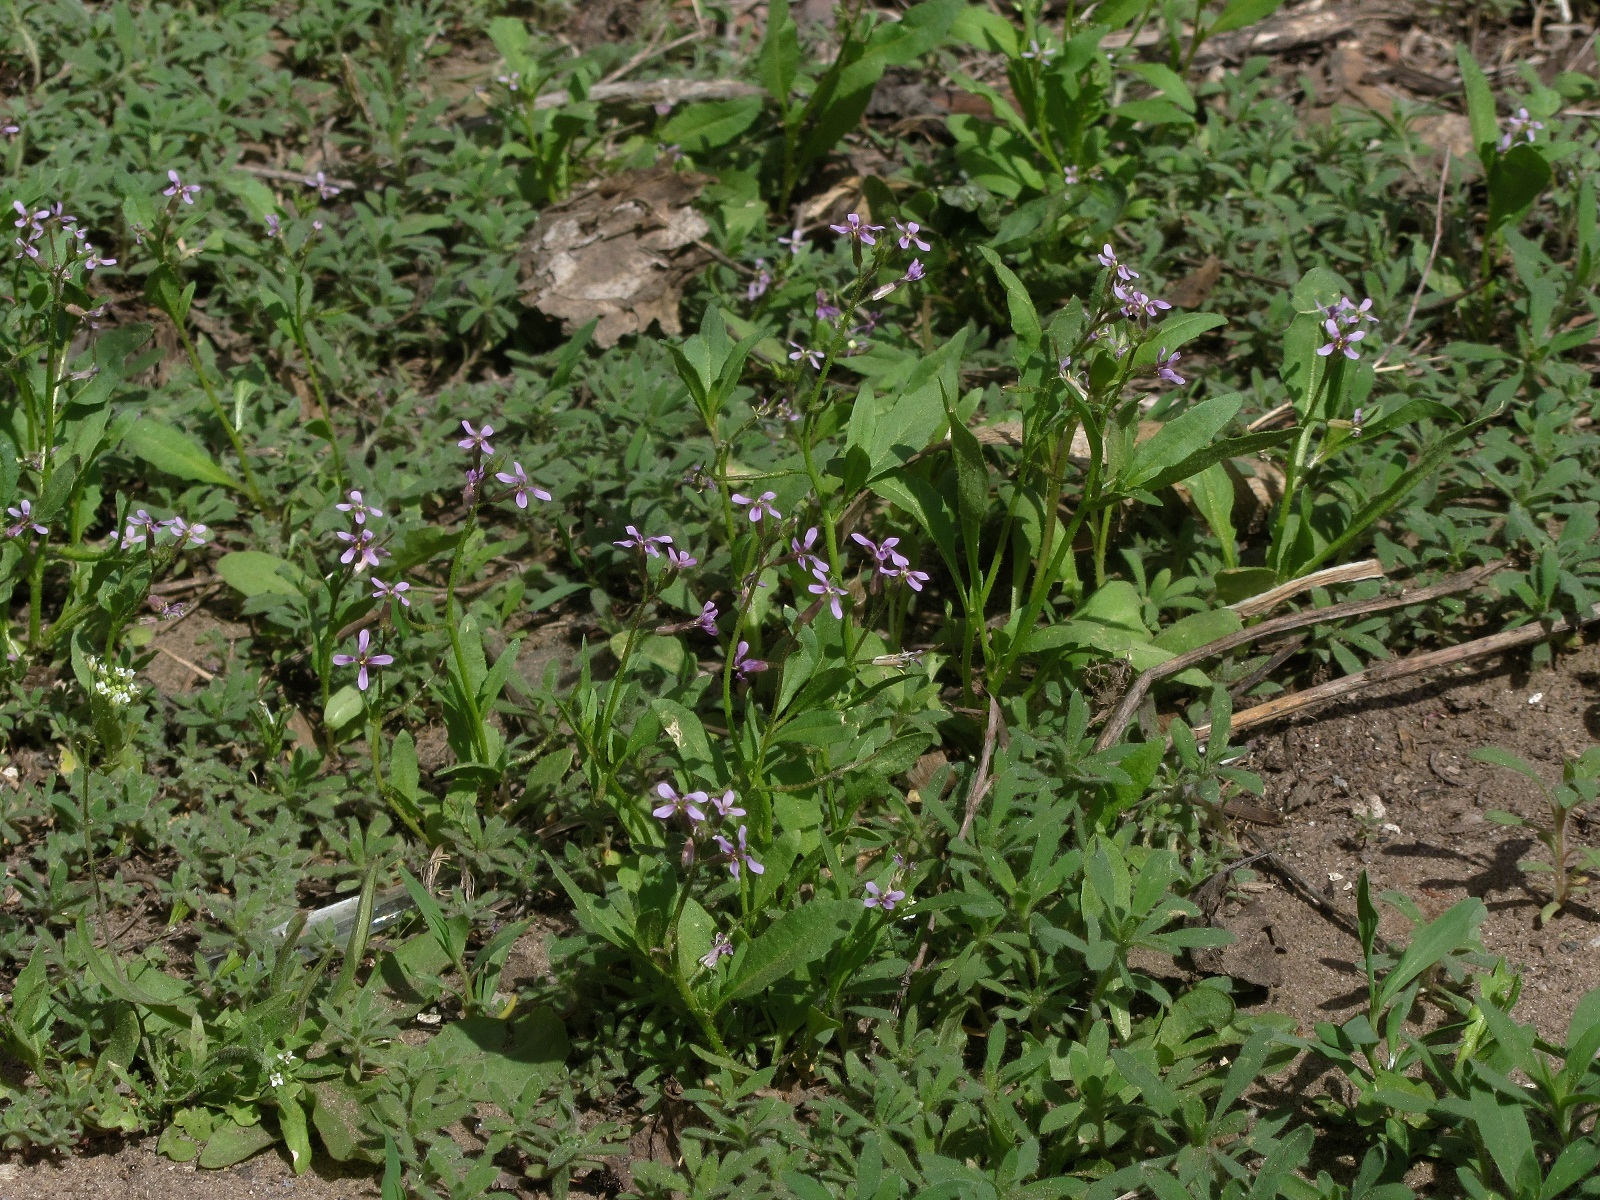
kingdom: Plantae
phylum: Tracheophyta
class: Magnoliopsida
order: Brassicales
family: Brassicaceae
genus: Chorispora
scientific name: Chorispora tenella
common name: Crossflower
